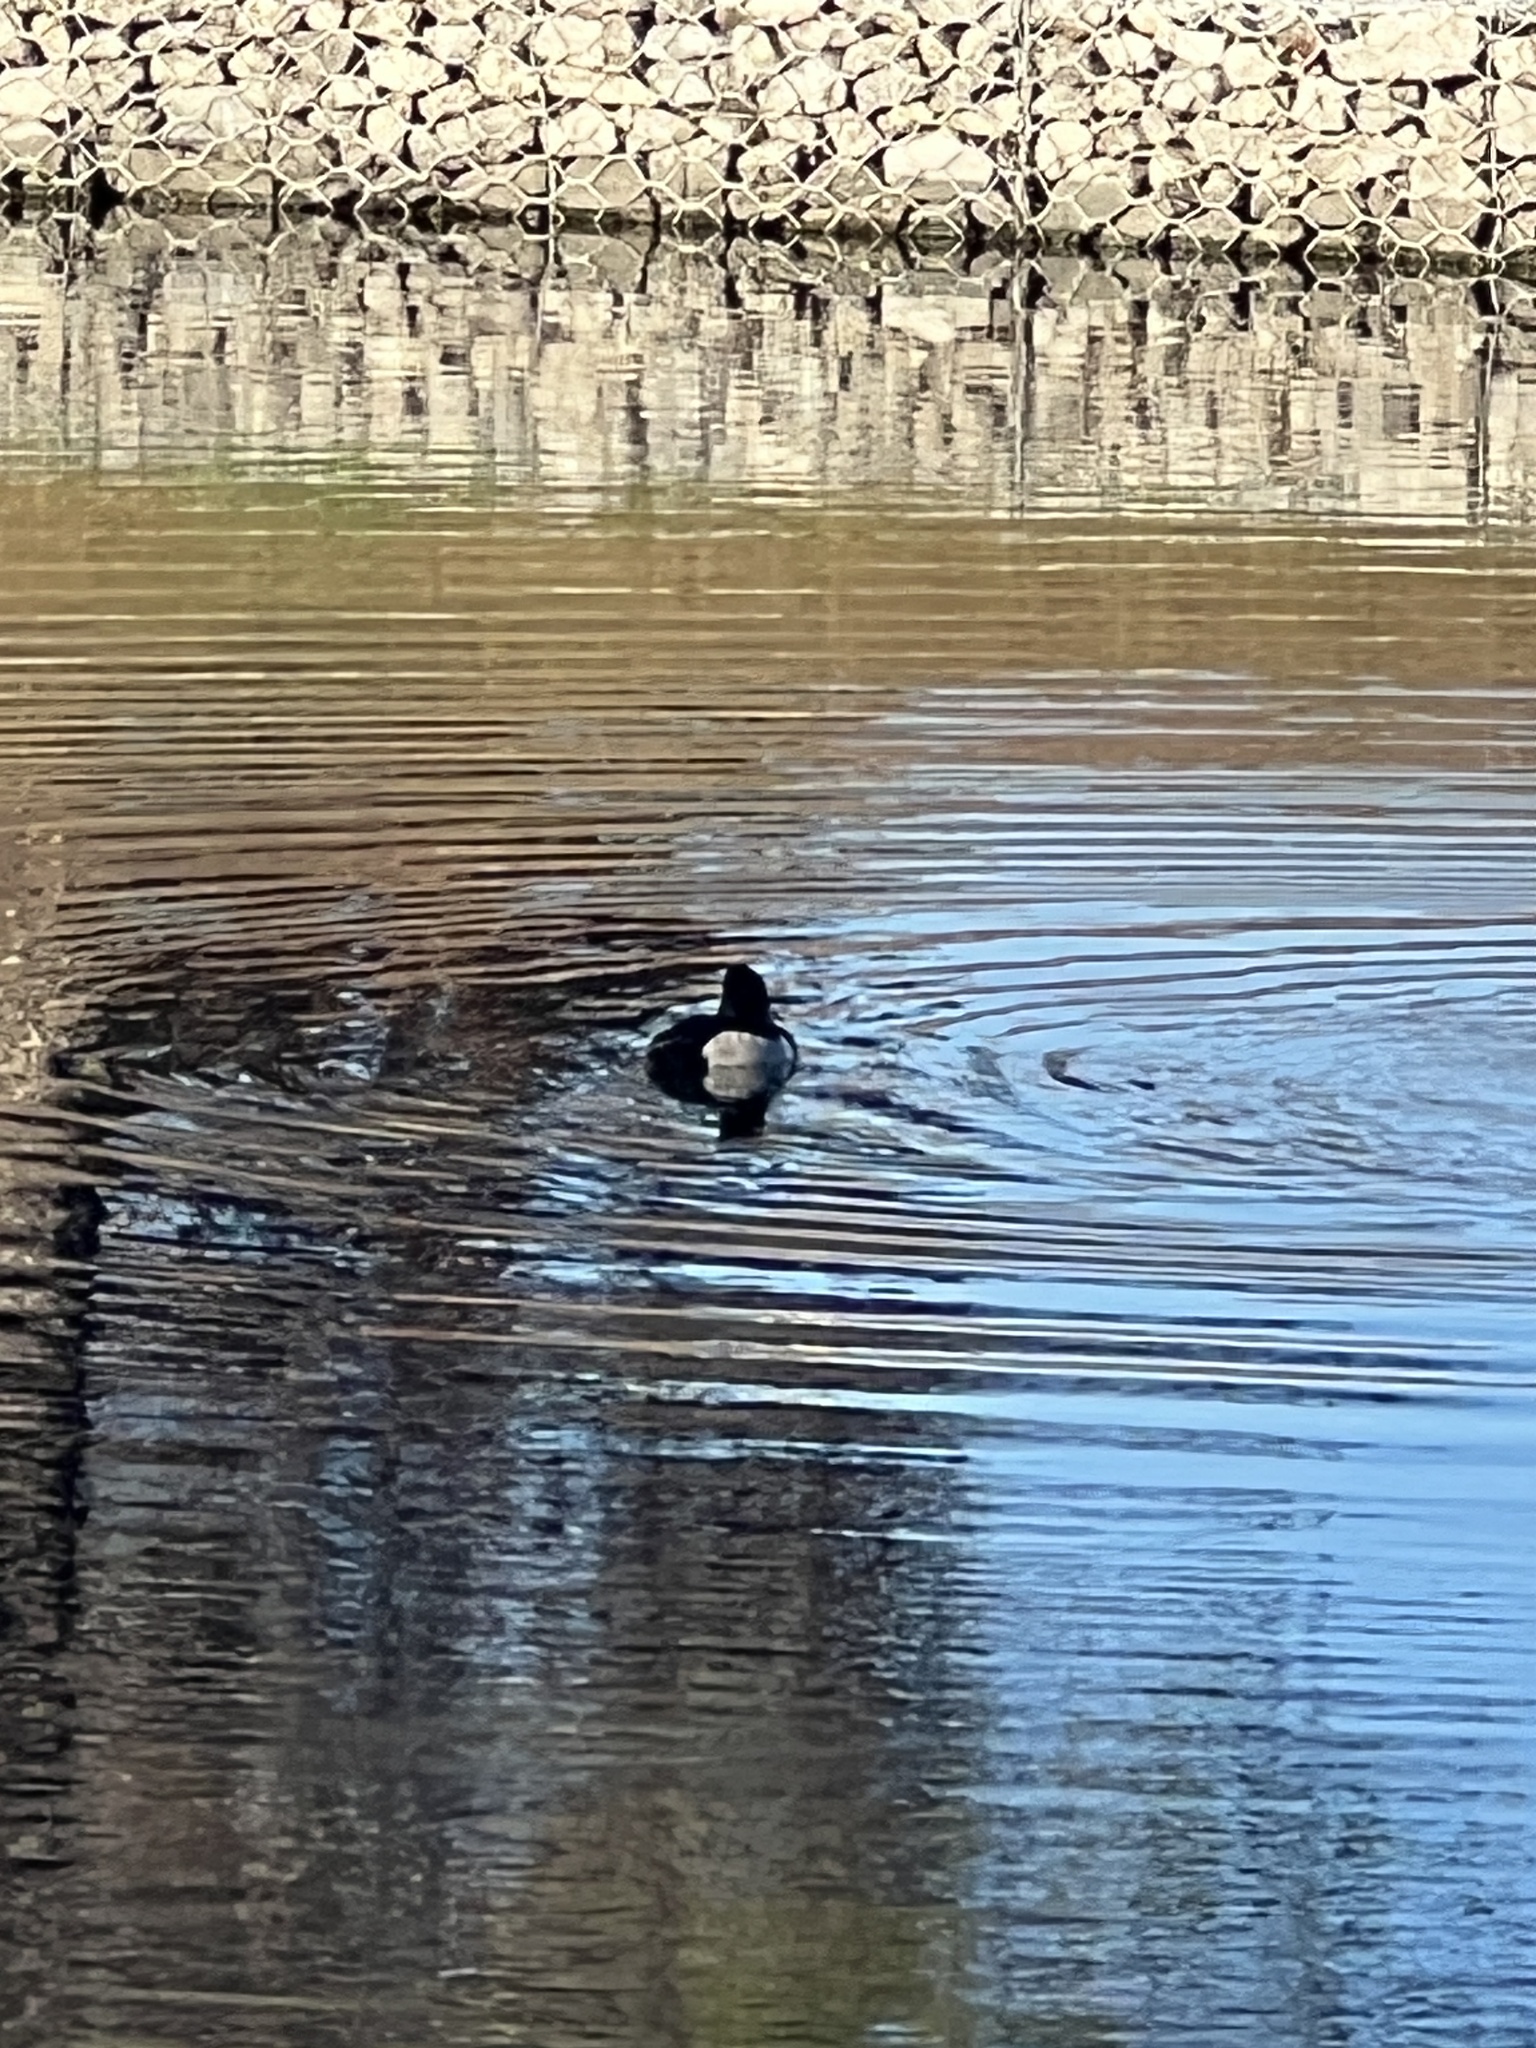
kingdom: Animalia
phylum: Chordata
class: Aves
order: Anseriformes
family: Anatidae
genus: Aythya
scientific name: Aythya collaris
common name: Ring-necked duck
